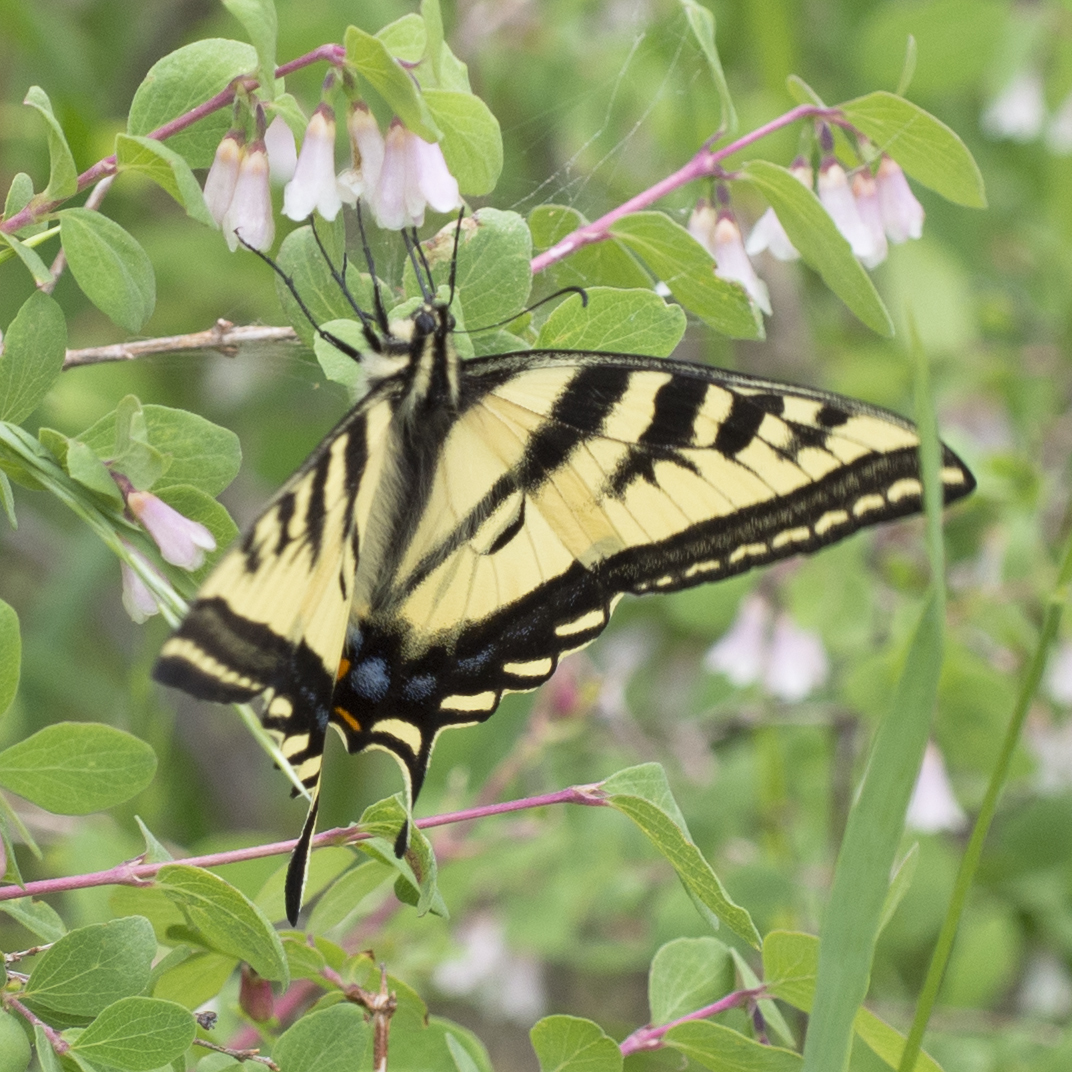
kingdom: Animalia
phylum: Arthropoda
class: Insecta
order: Lepidoptera
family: Papilionidae
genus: Papilio
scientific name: Papilio rutulus
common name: Western tiger swallowtail
